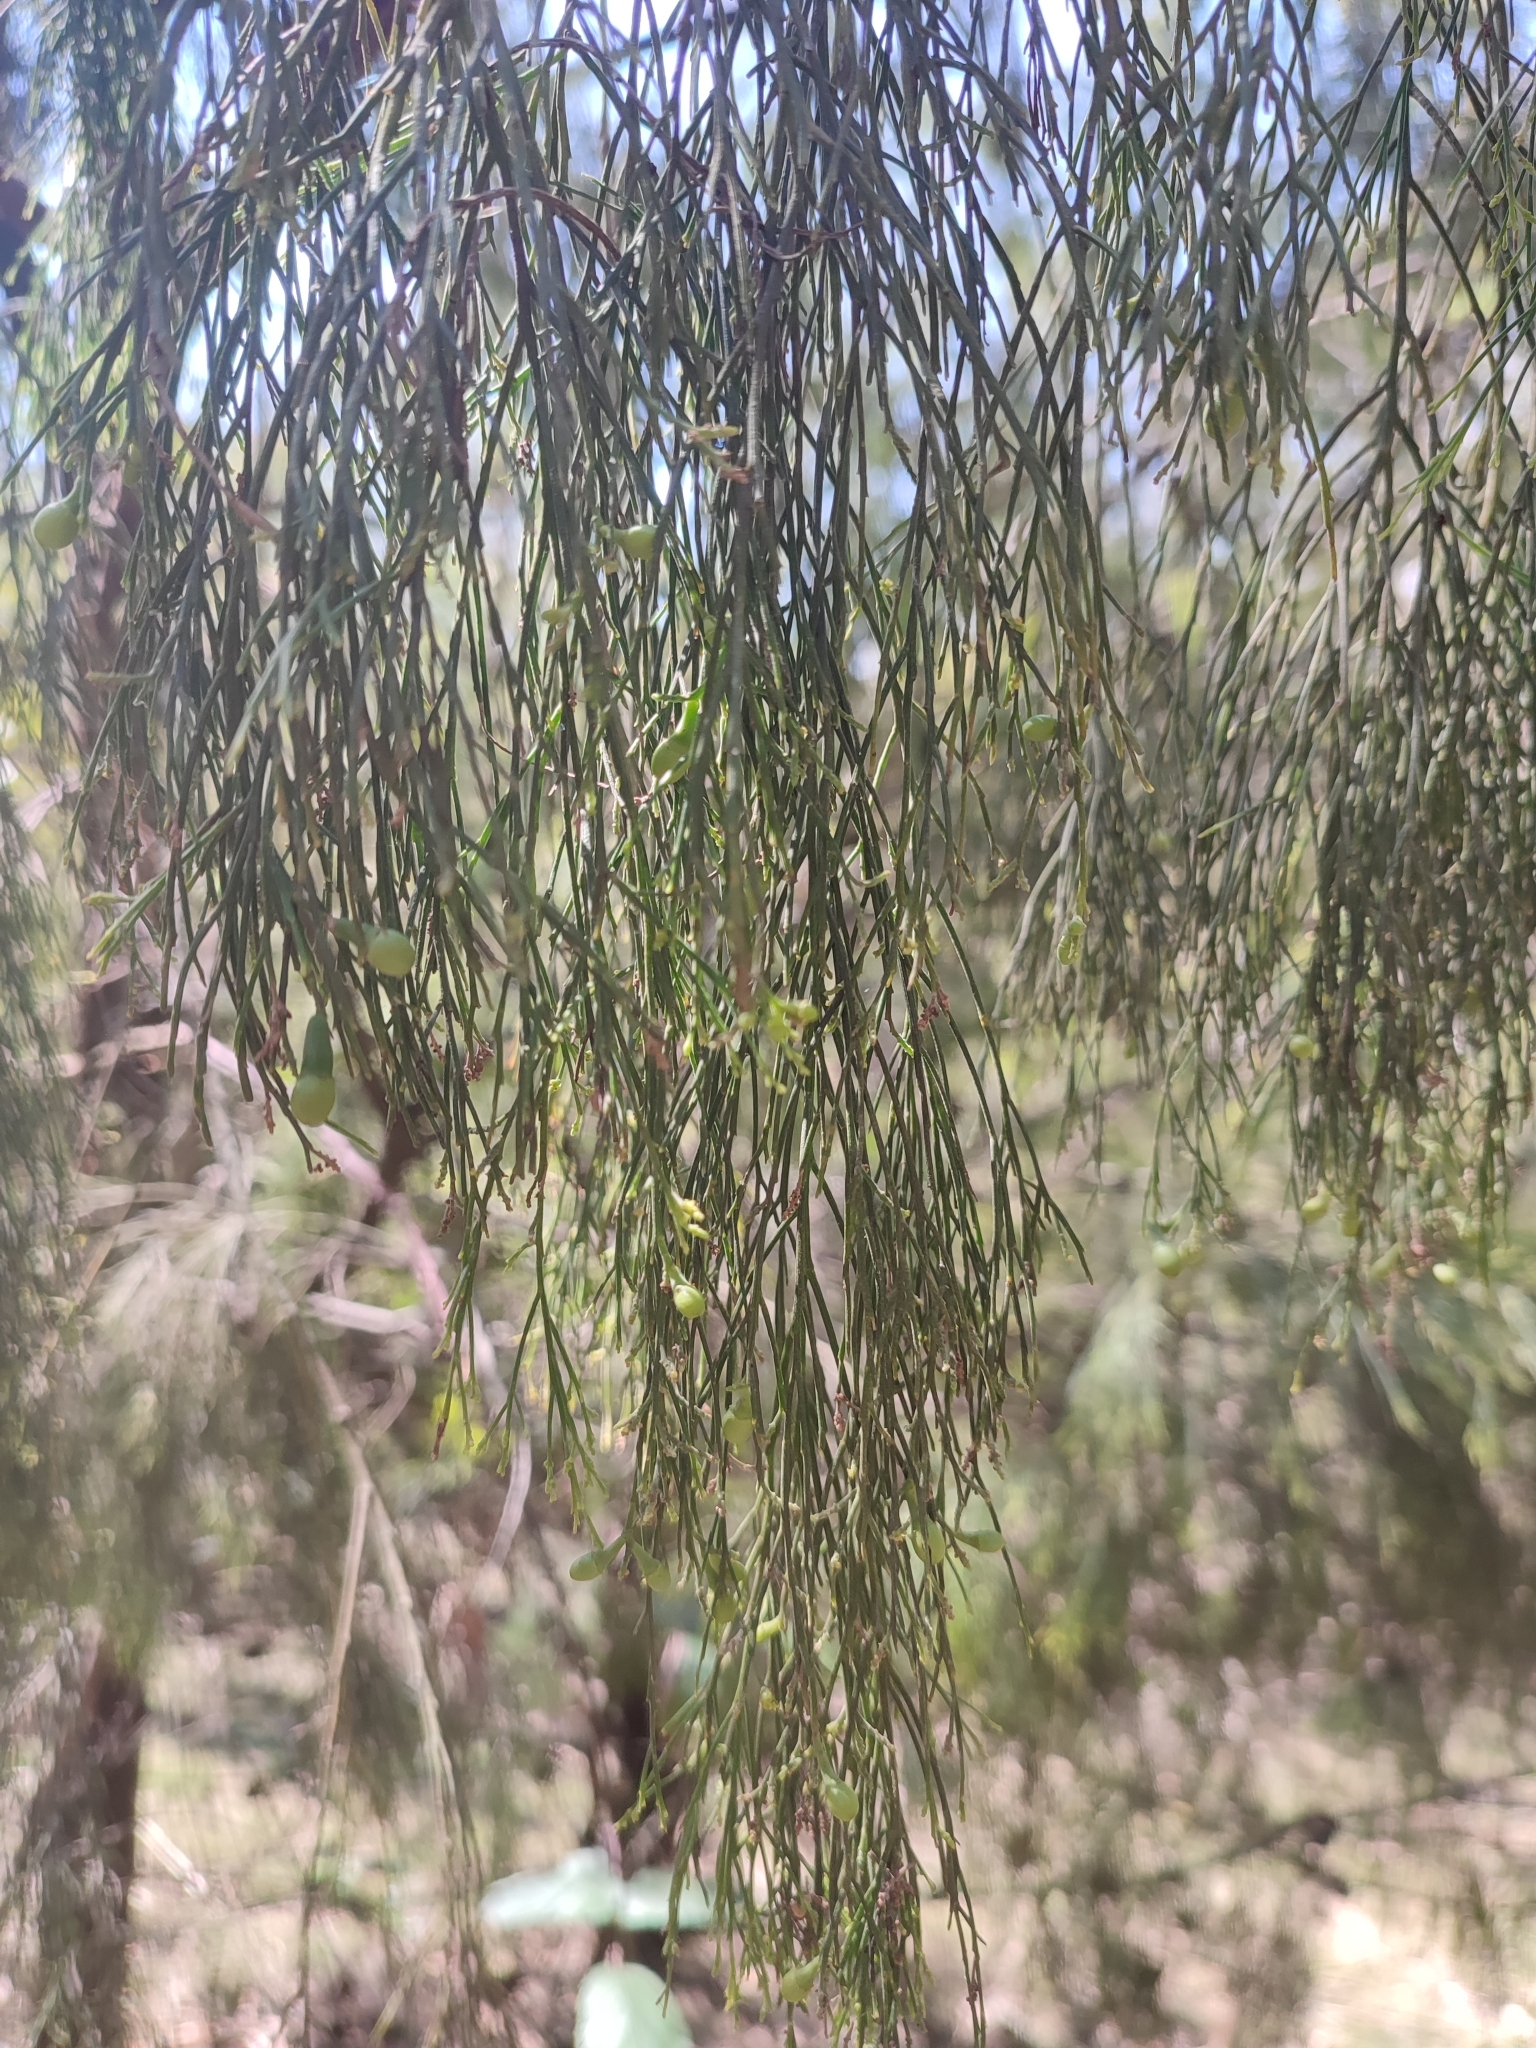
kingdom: Plantae
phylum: Tracheophyta
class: Magnoliopsida
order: Santalales
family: Santalaceae
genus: Exocarpos
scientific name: Exocarpos cupressiformis
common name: Cherry ballart
